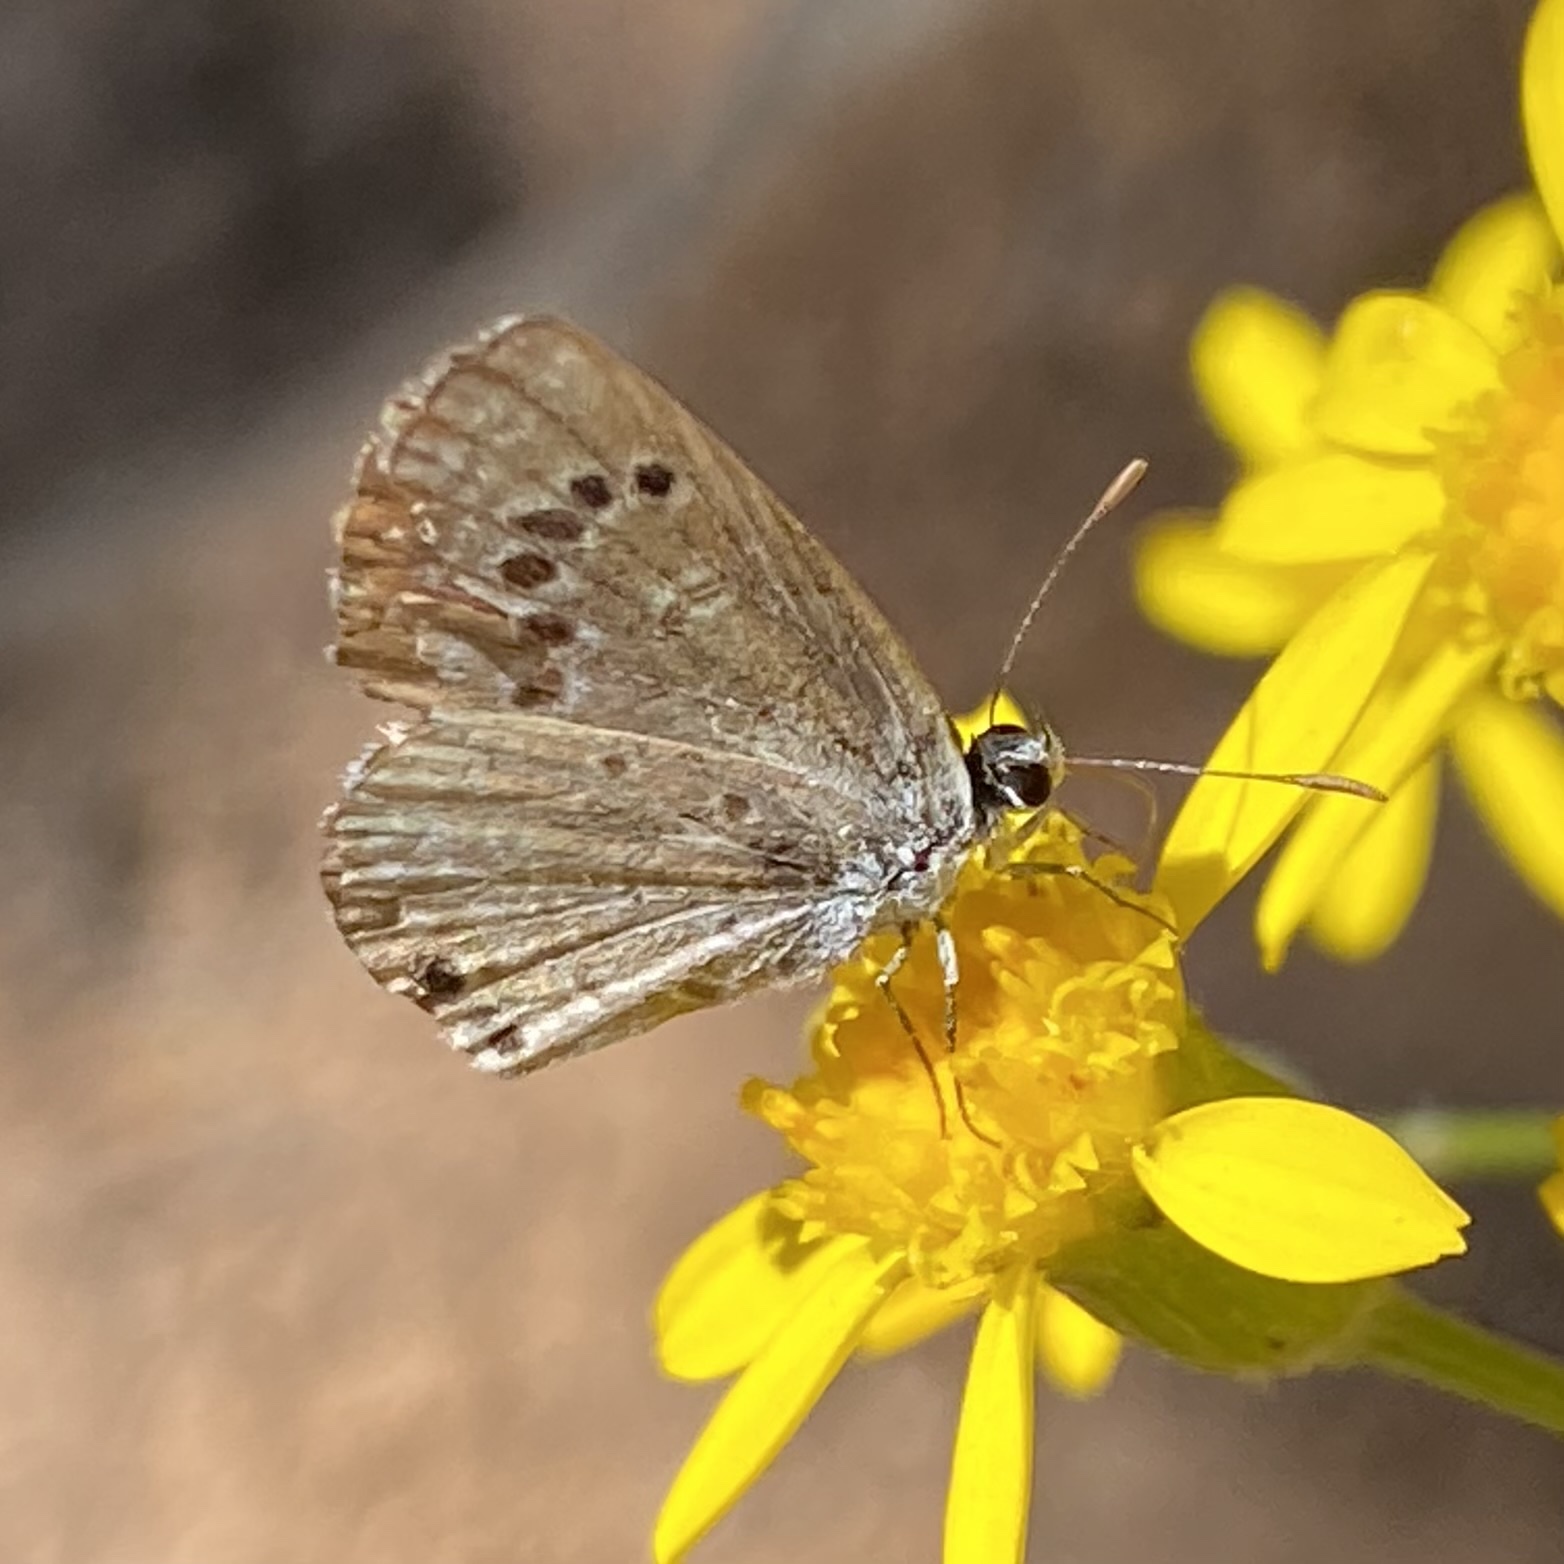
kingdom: Animalia
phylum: Arthropoda
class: Insecta
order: Lepidoptera
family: Lycaenidae
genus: Echinargus
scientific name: Echinargus isola
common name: Reakirt's blue
